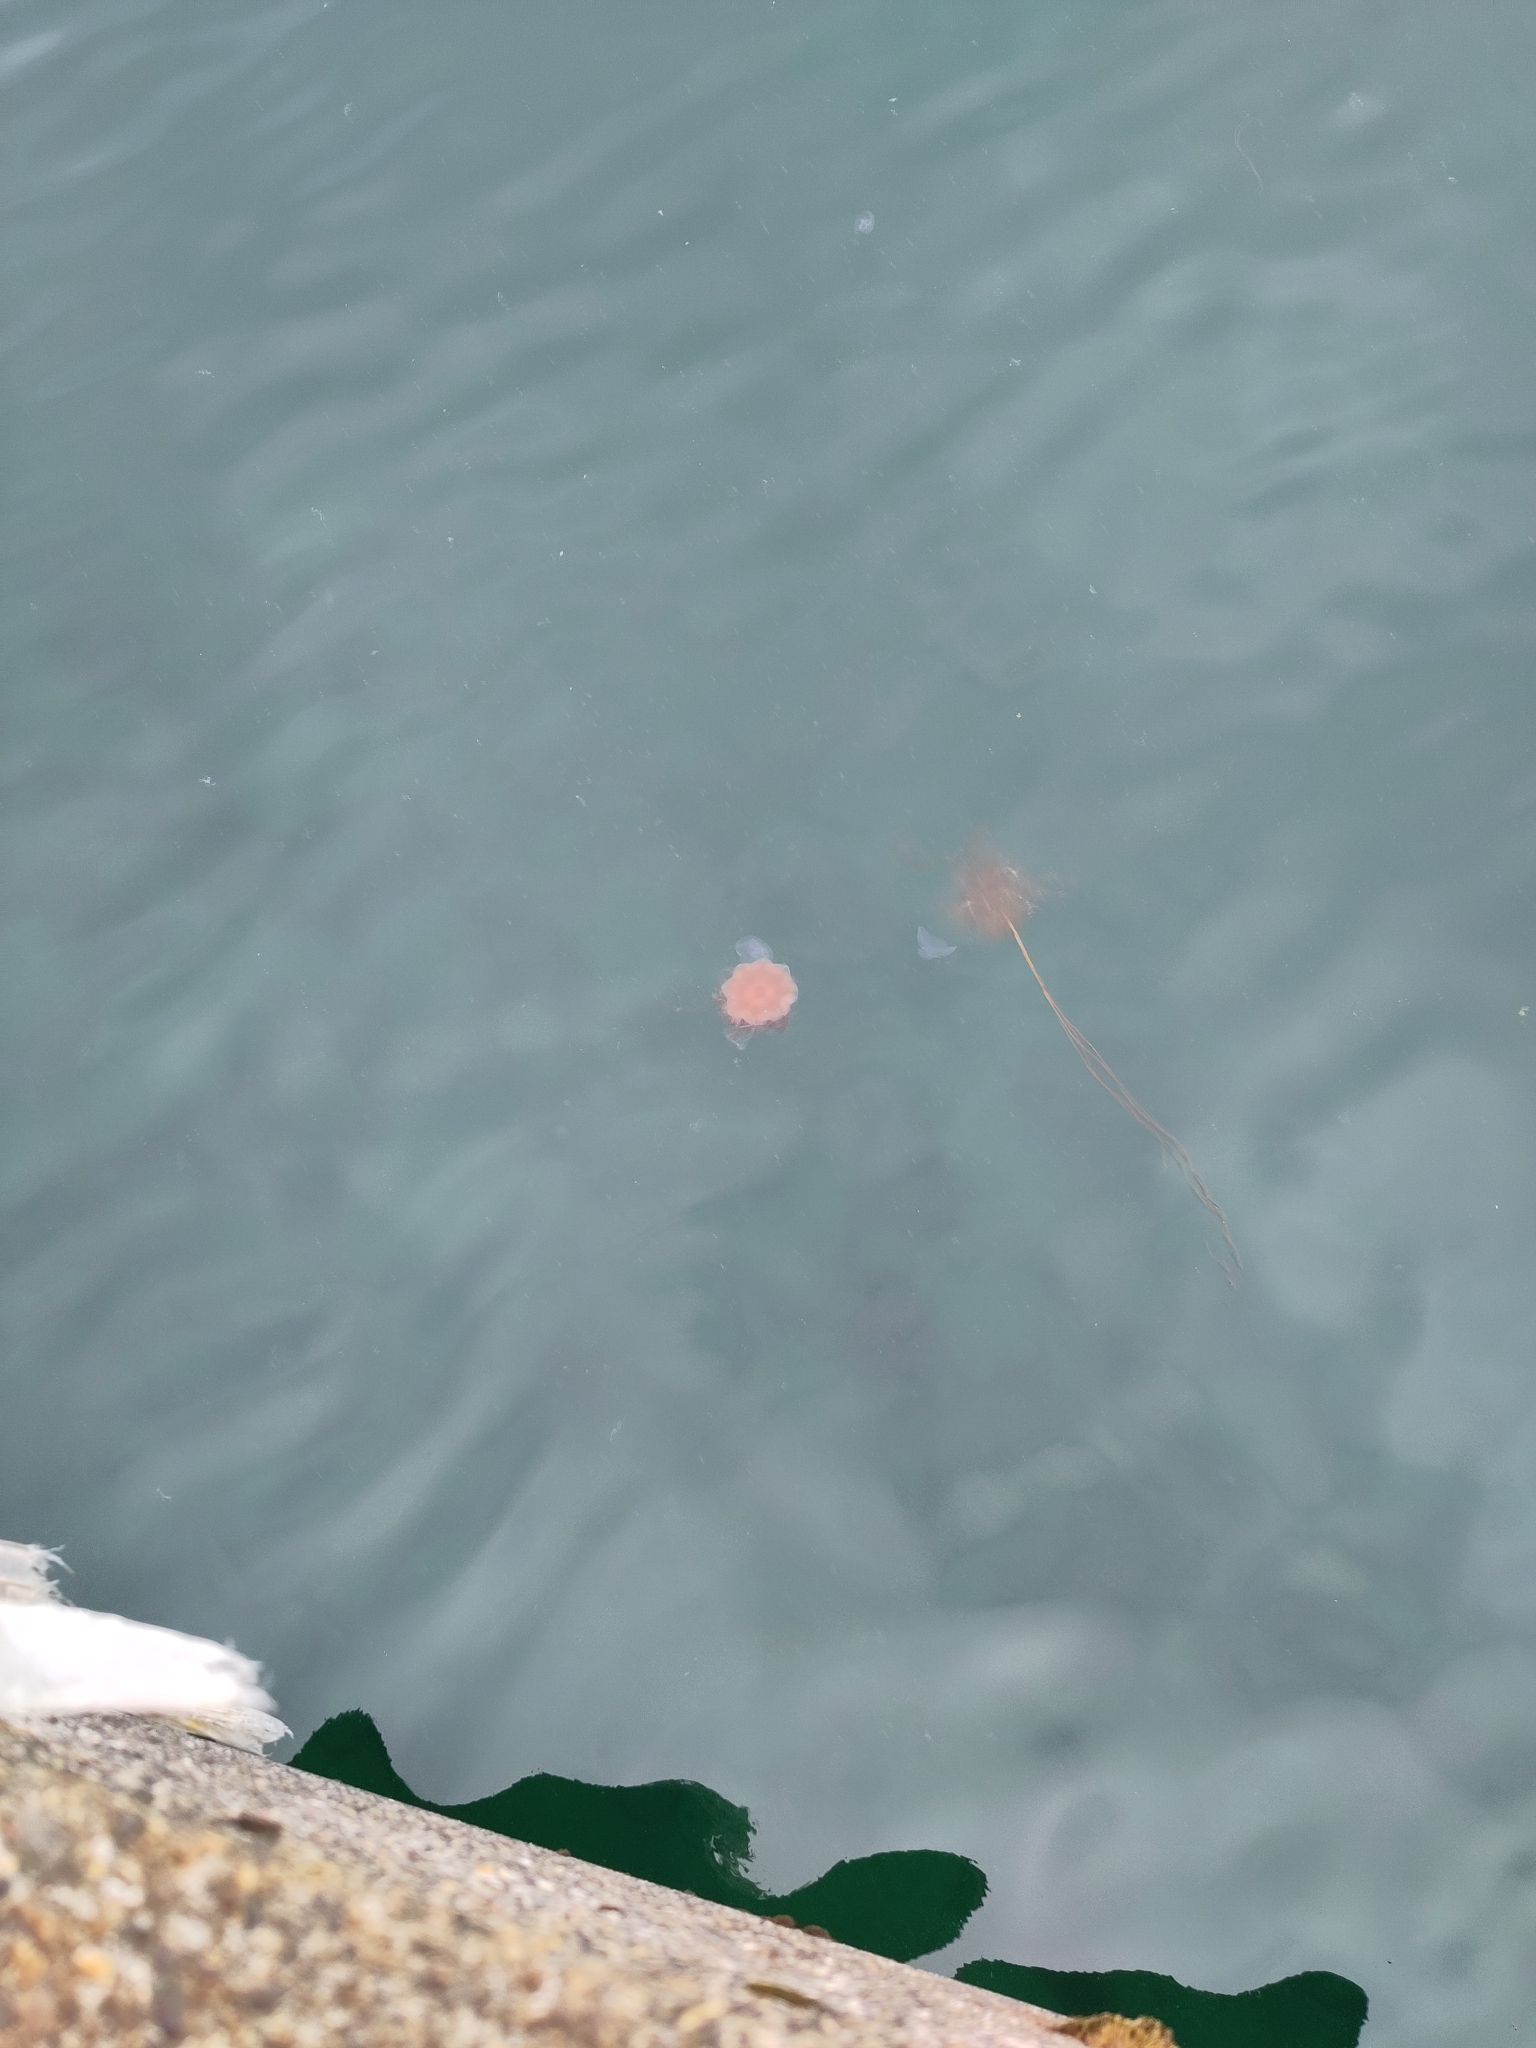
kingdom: Animalia
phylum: Cnidaria
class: Scyphozoa
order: Semaeostomeae
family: Cyaneidae
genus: Cyanea
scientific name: Cyanea capillata
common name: Lion's mane jellyfish
